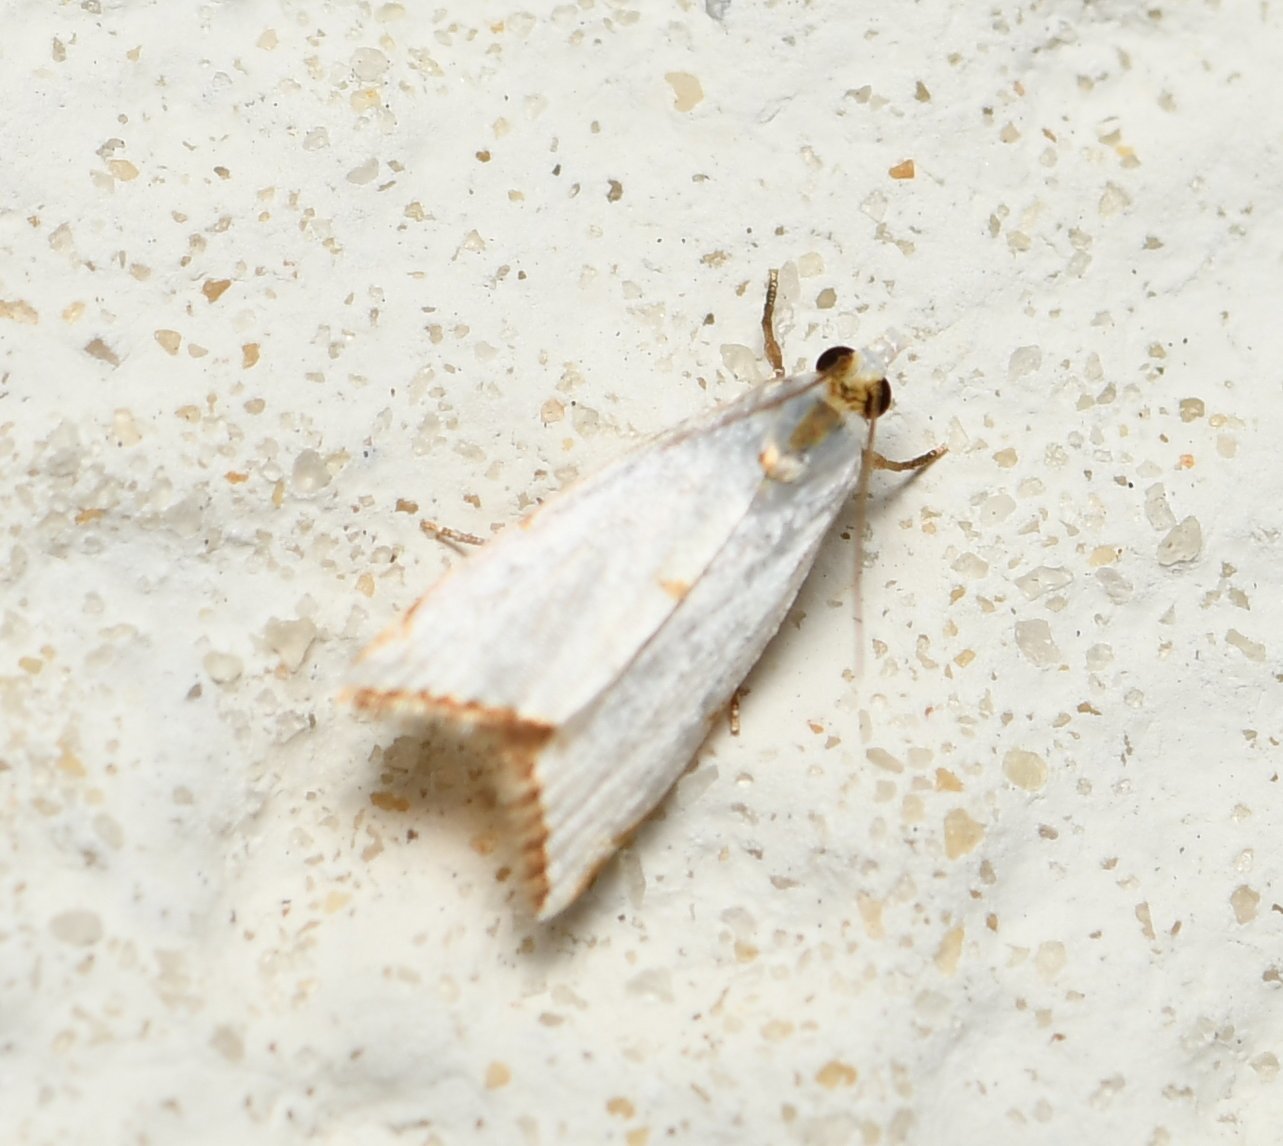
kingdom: Animalia
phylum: Arthropoda
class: Insecta
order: Lepidoptera
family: Crambidae
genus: Argyria
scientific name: Argyria nivalis
